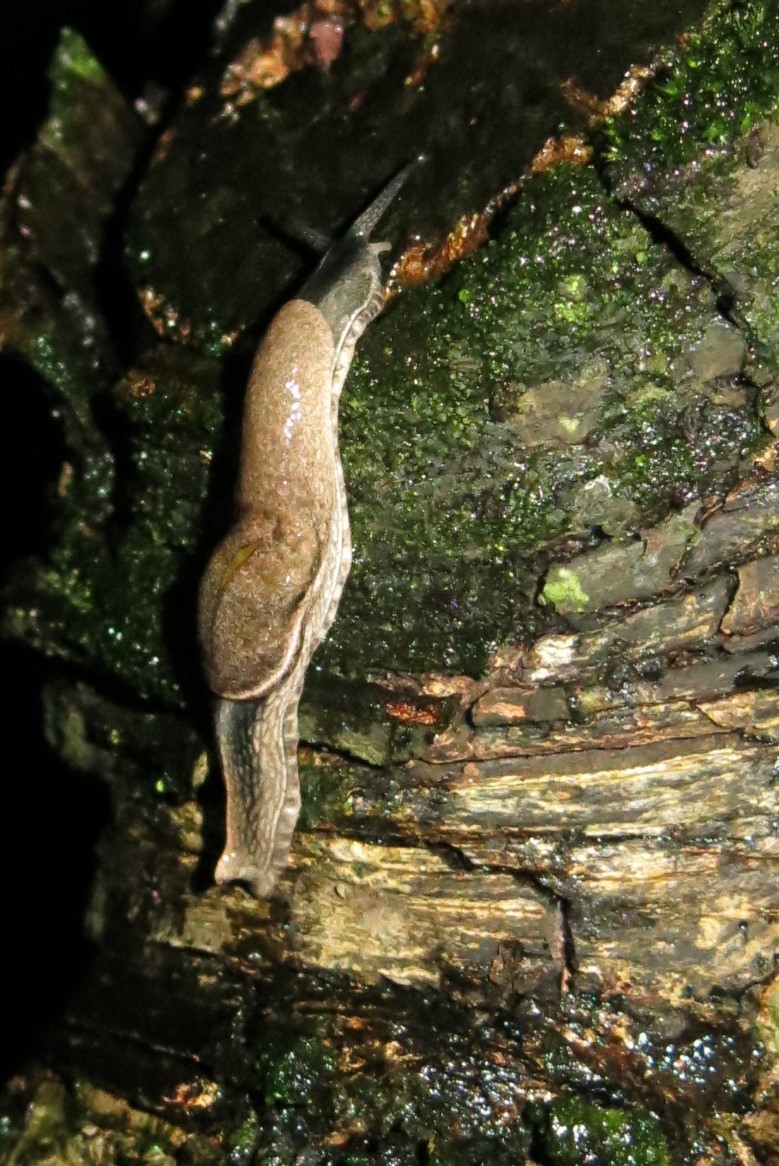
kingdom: Animalia
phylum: Mollusca
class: Gastropoda
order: Stylommatophora
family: Ariophantidae
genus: Parmarion
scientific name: Parmarion martensi
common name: Semi-slug
